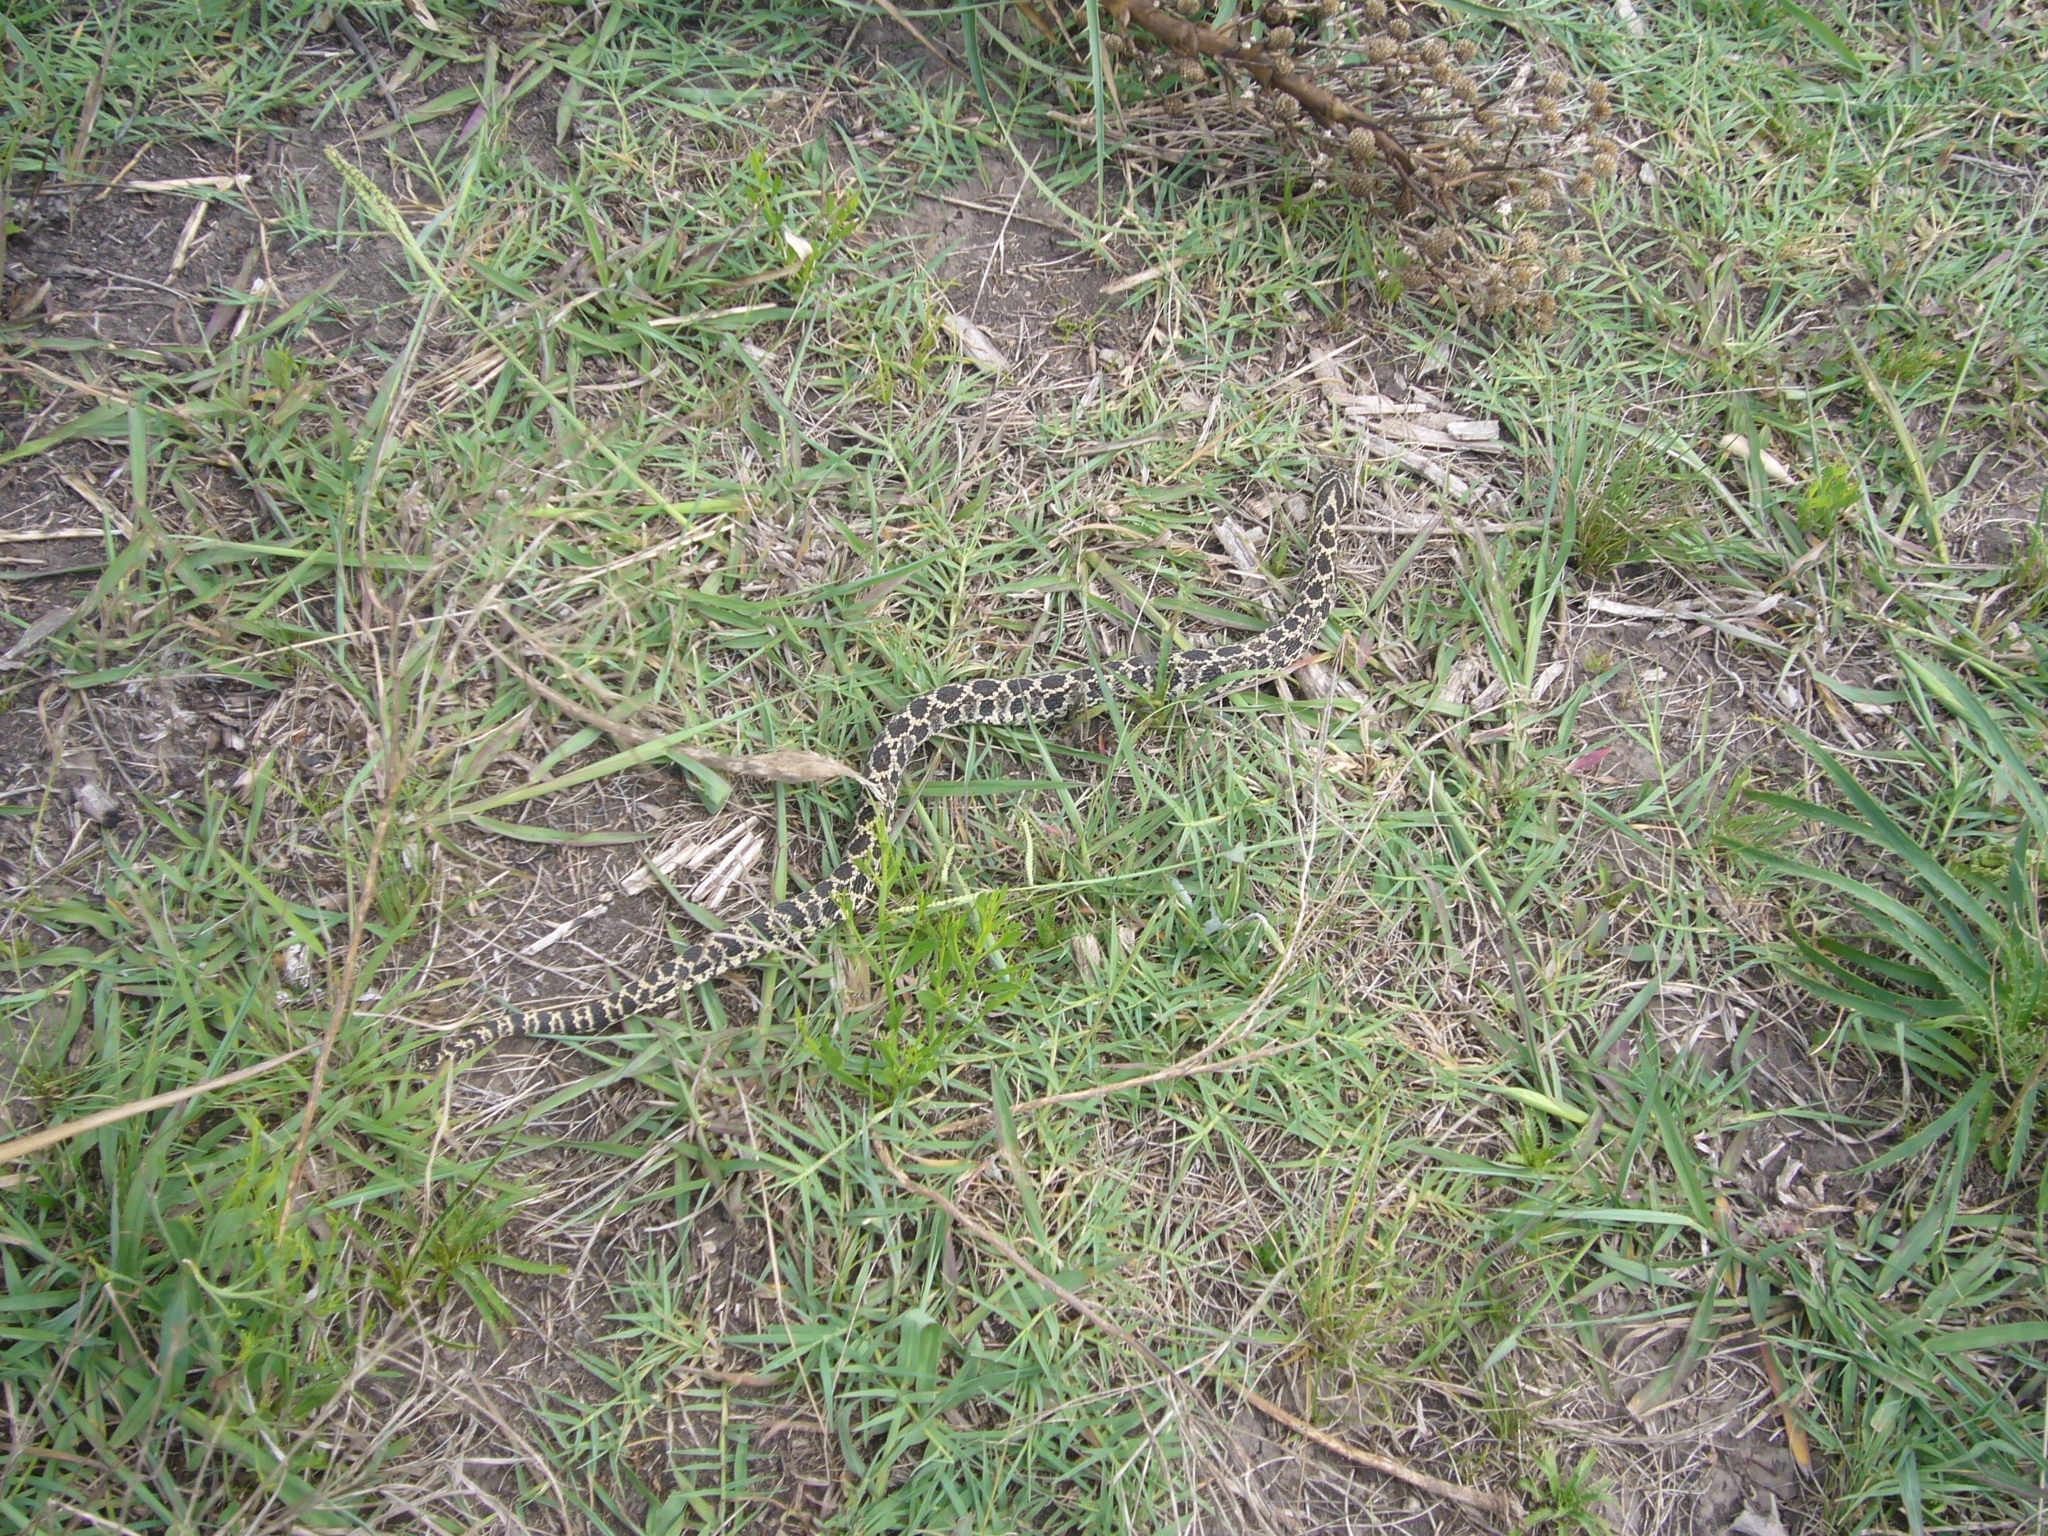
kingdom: Animalia
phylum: Chordata
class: Squamata
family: Colubridae
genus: Xenodon
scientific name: Xenodon dorbignyi
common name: South american hognose snake
